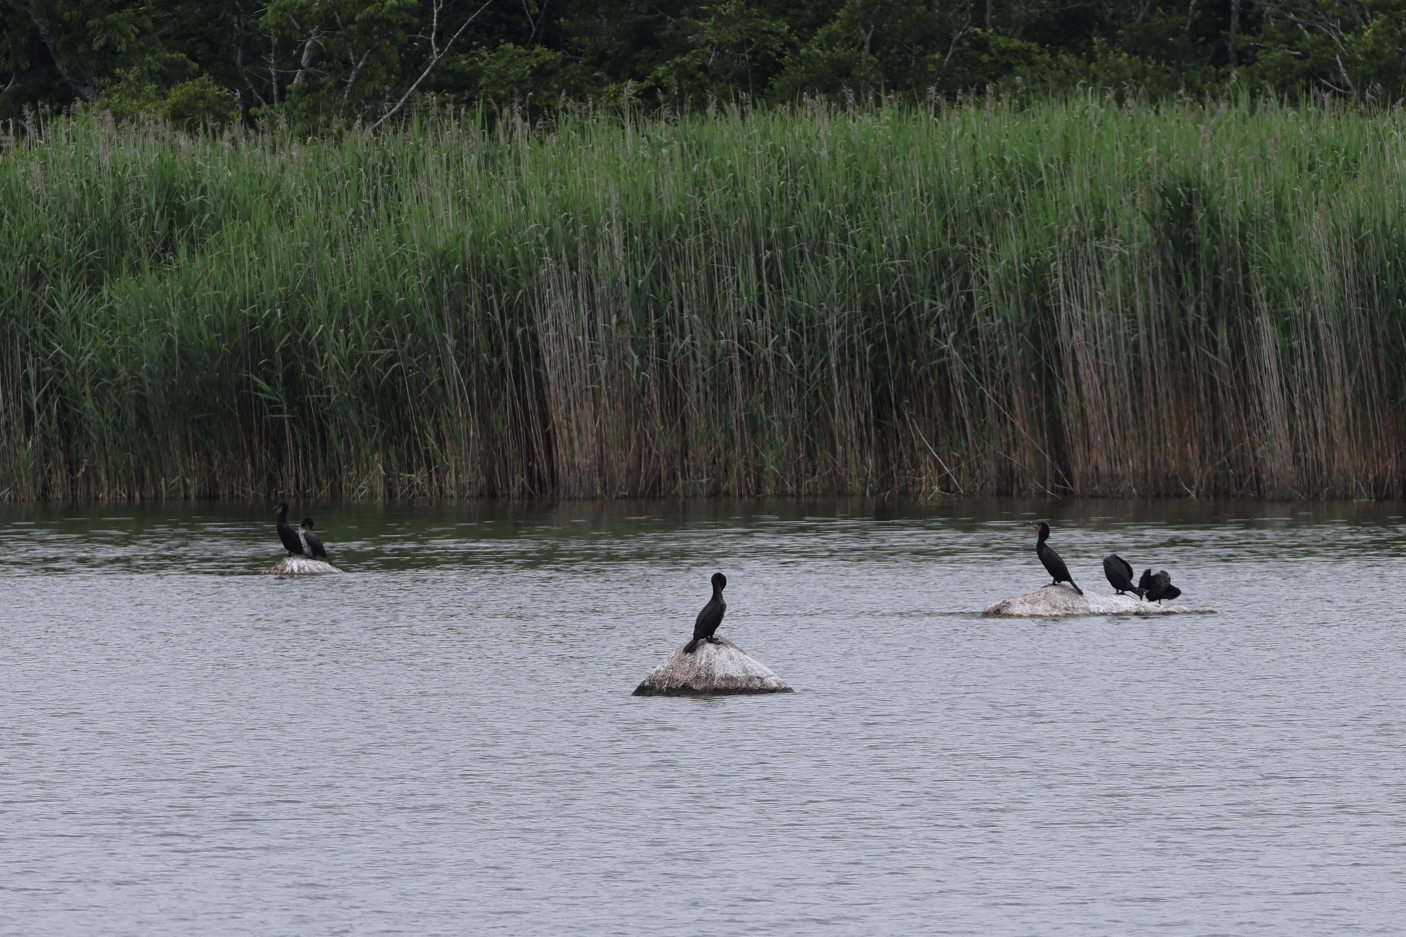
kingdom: Animalia
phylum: Chordata
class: Aves
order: Suliformes
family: Phalacrocoracidae
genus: Phalacrocorax
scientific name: Phalacrocorax auritus
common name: Double-crested cormorant
